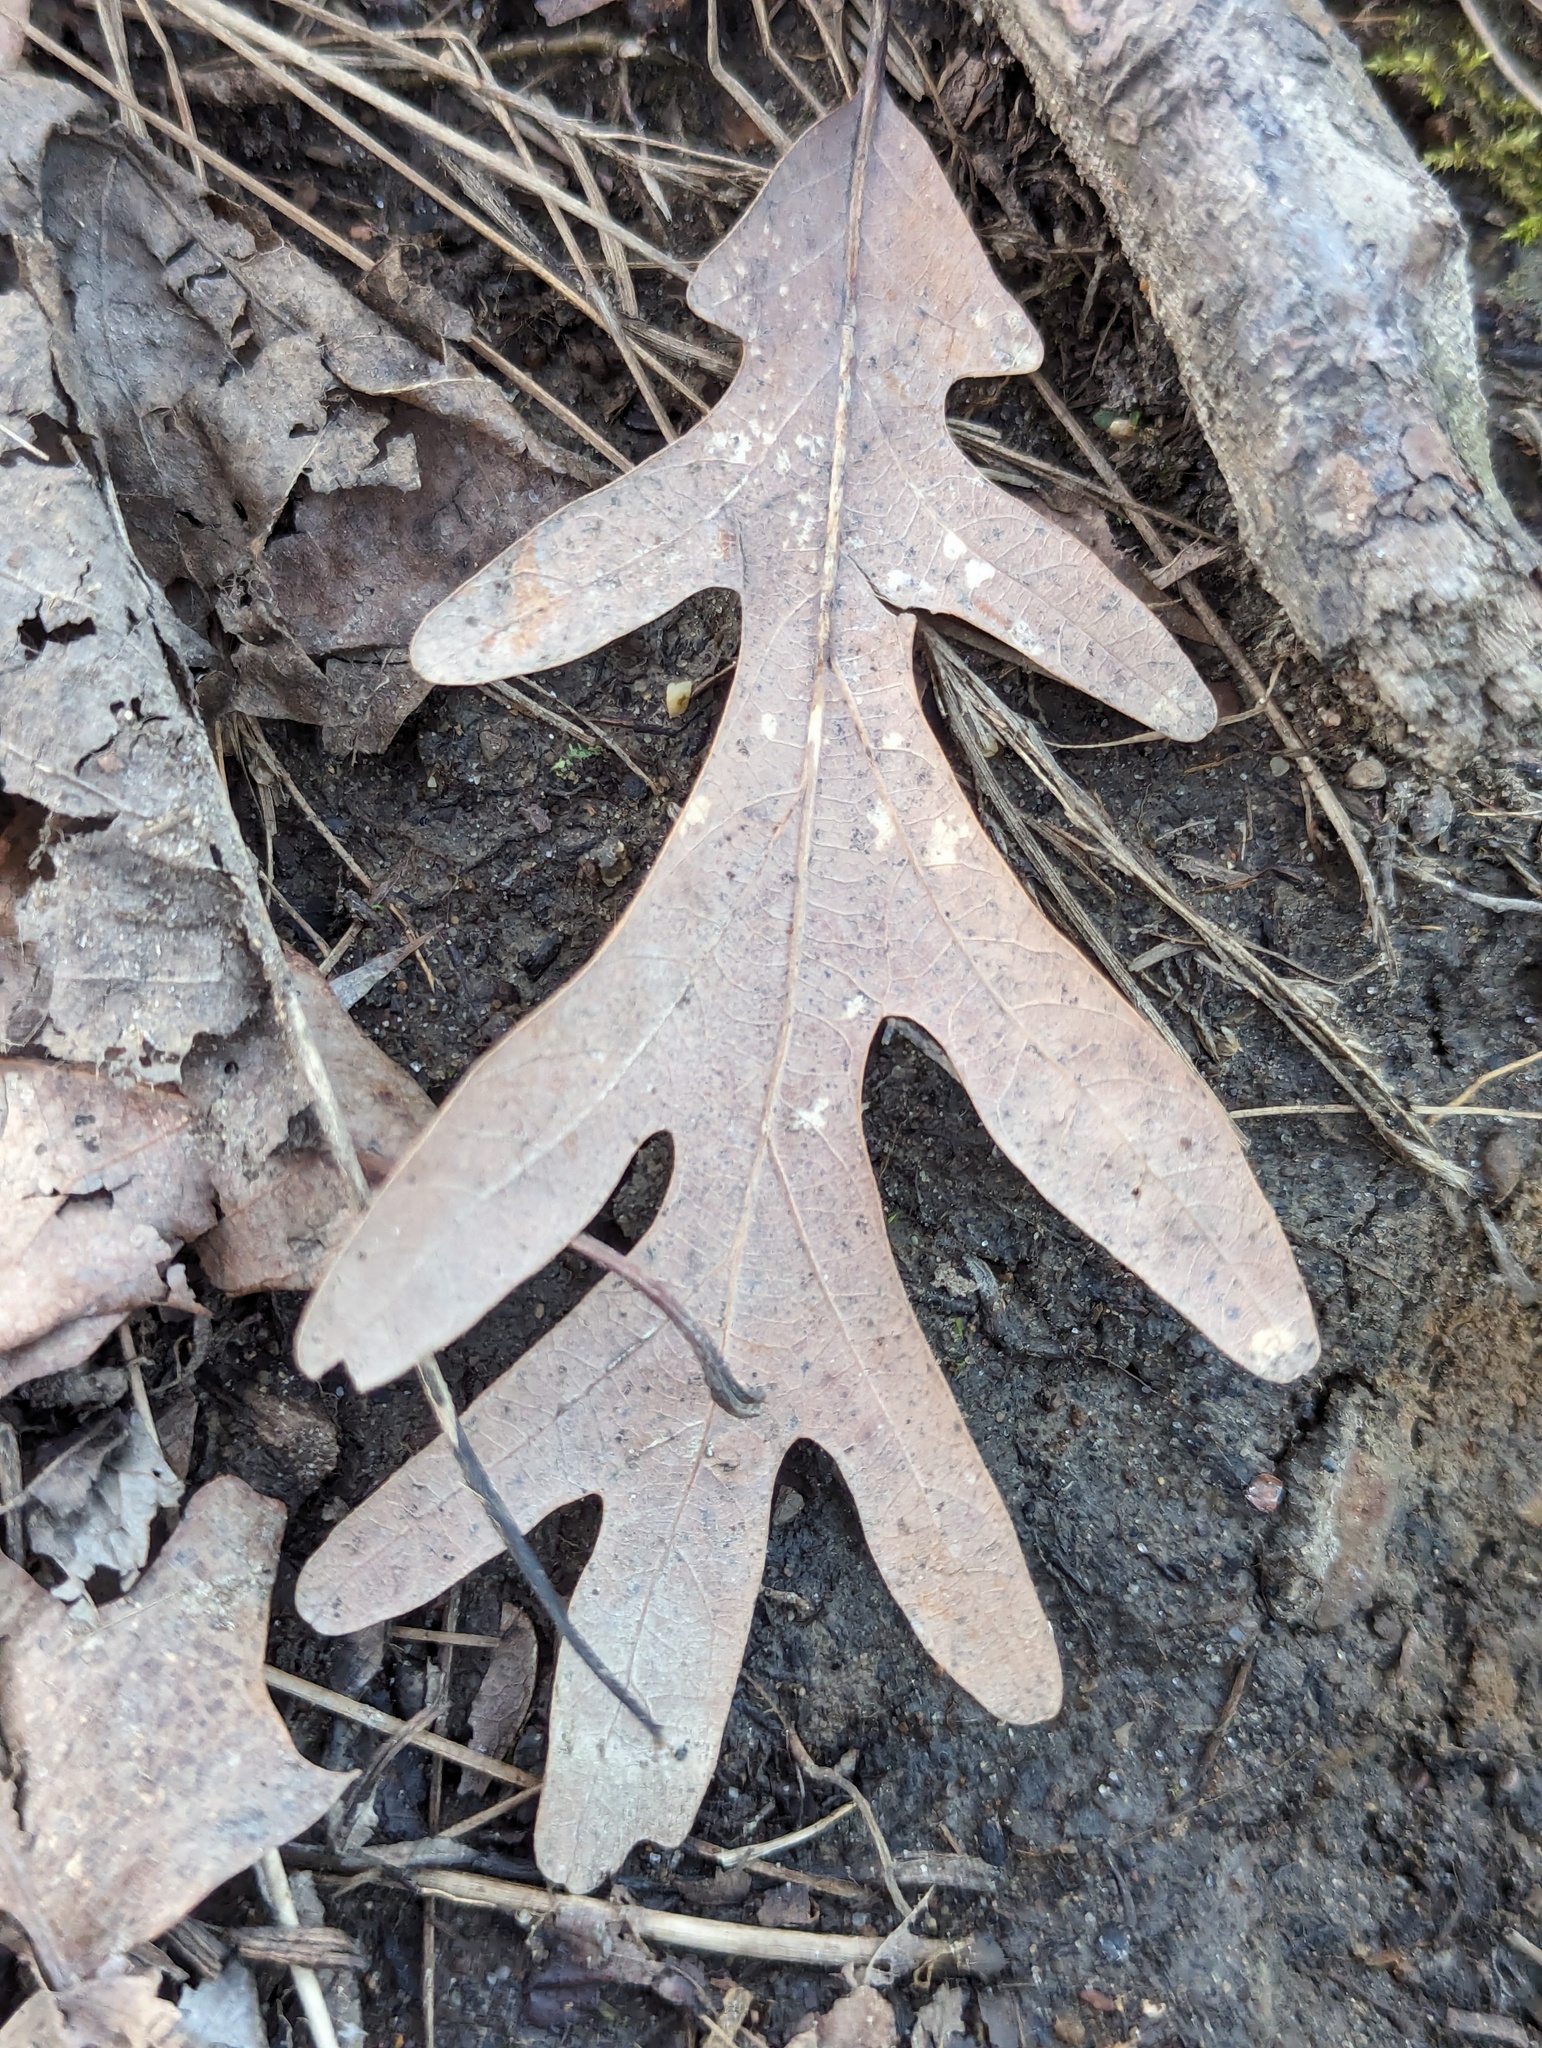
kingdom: Plantae
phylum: Tracheophyta
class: Magnoliopsida
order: Fagales
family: Fagaceae
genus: Quercus
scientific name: Quercus alba
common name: White oak
